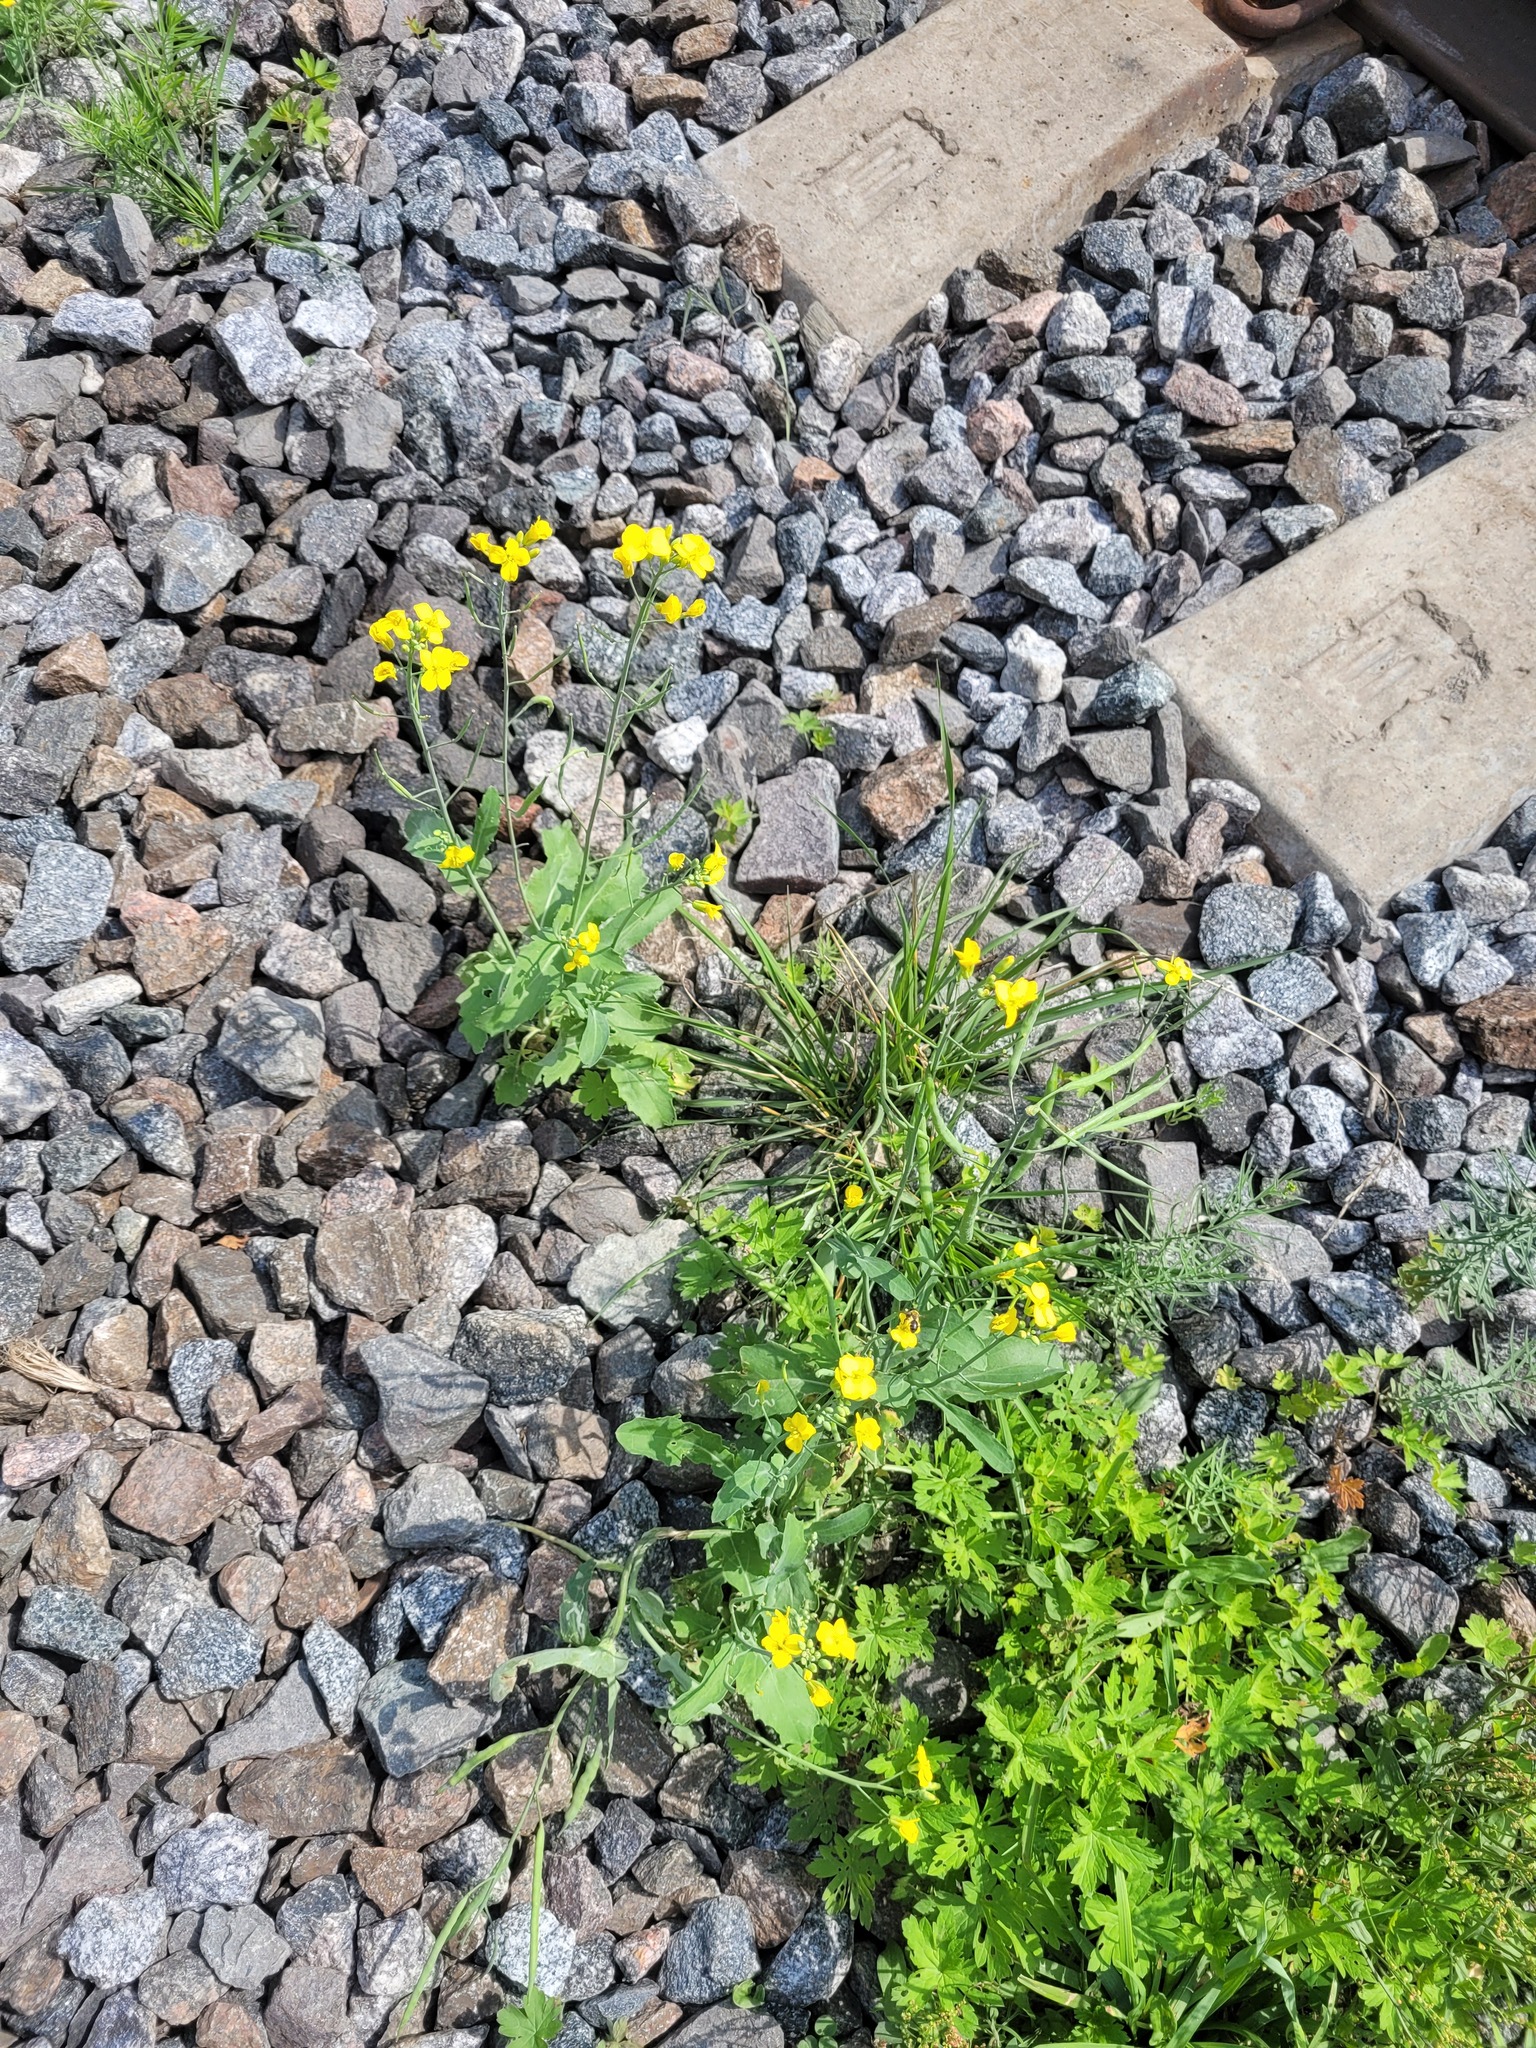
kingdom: Plantae
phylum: Tracheophyta
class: Magnoliopsida
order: Brassicales
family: Brassicaceae
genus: Brassica
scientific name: Brassica napus
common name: Rape
